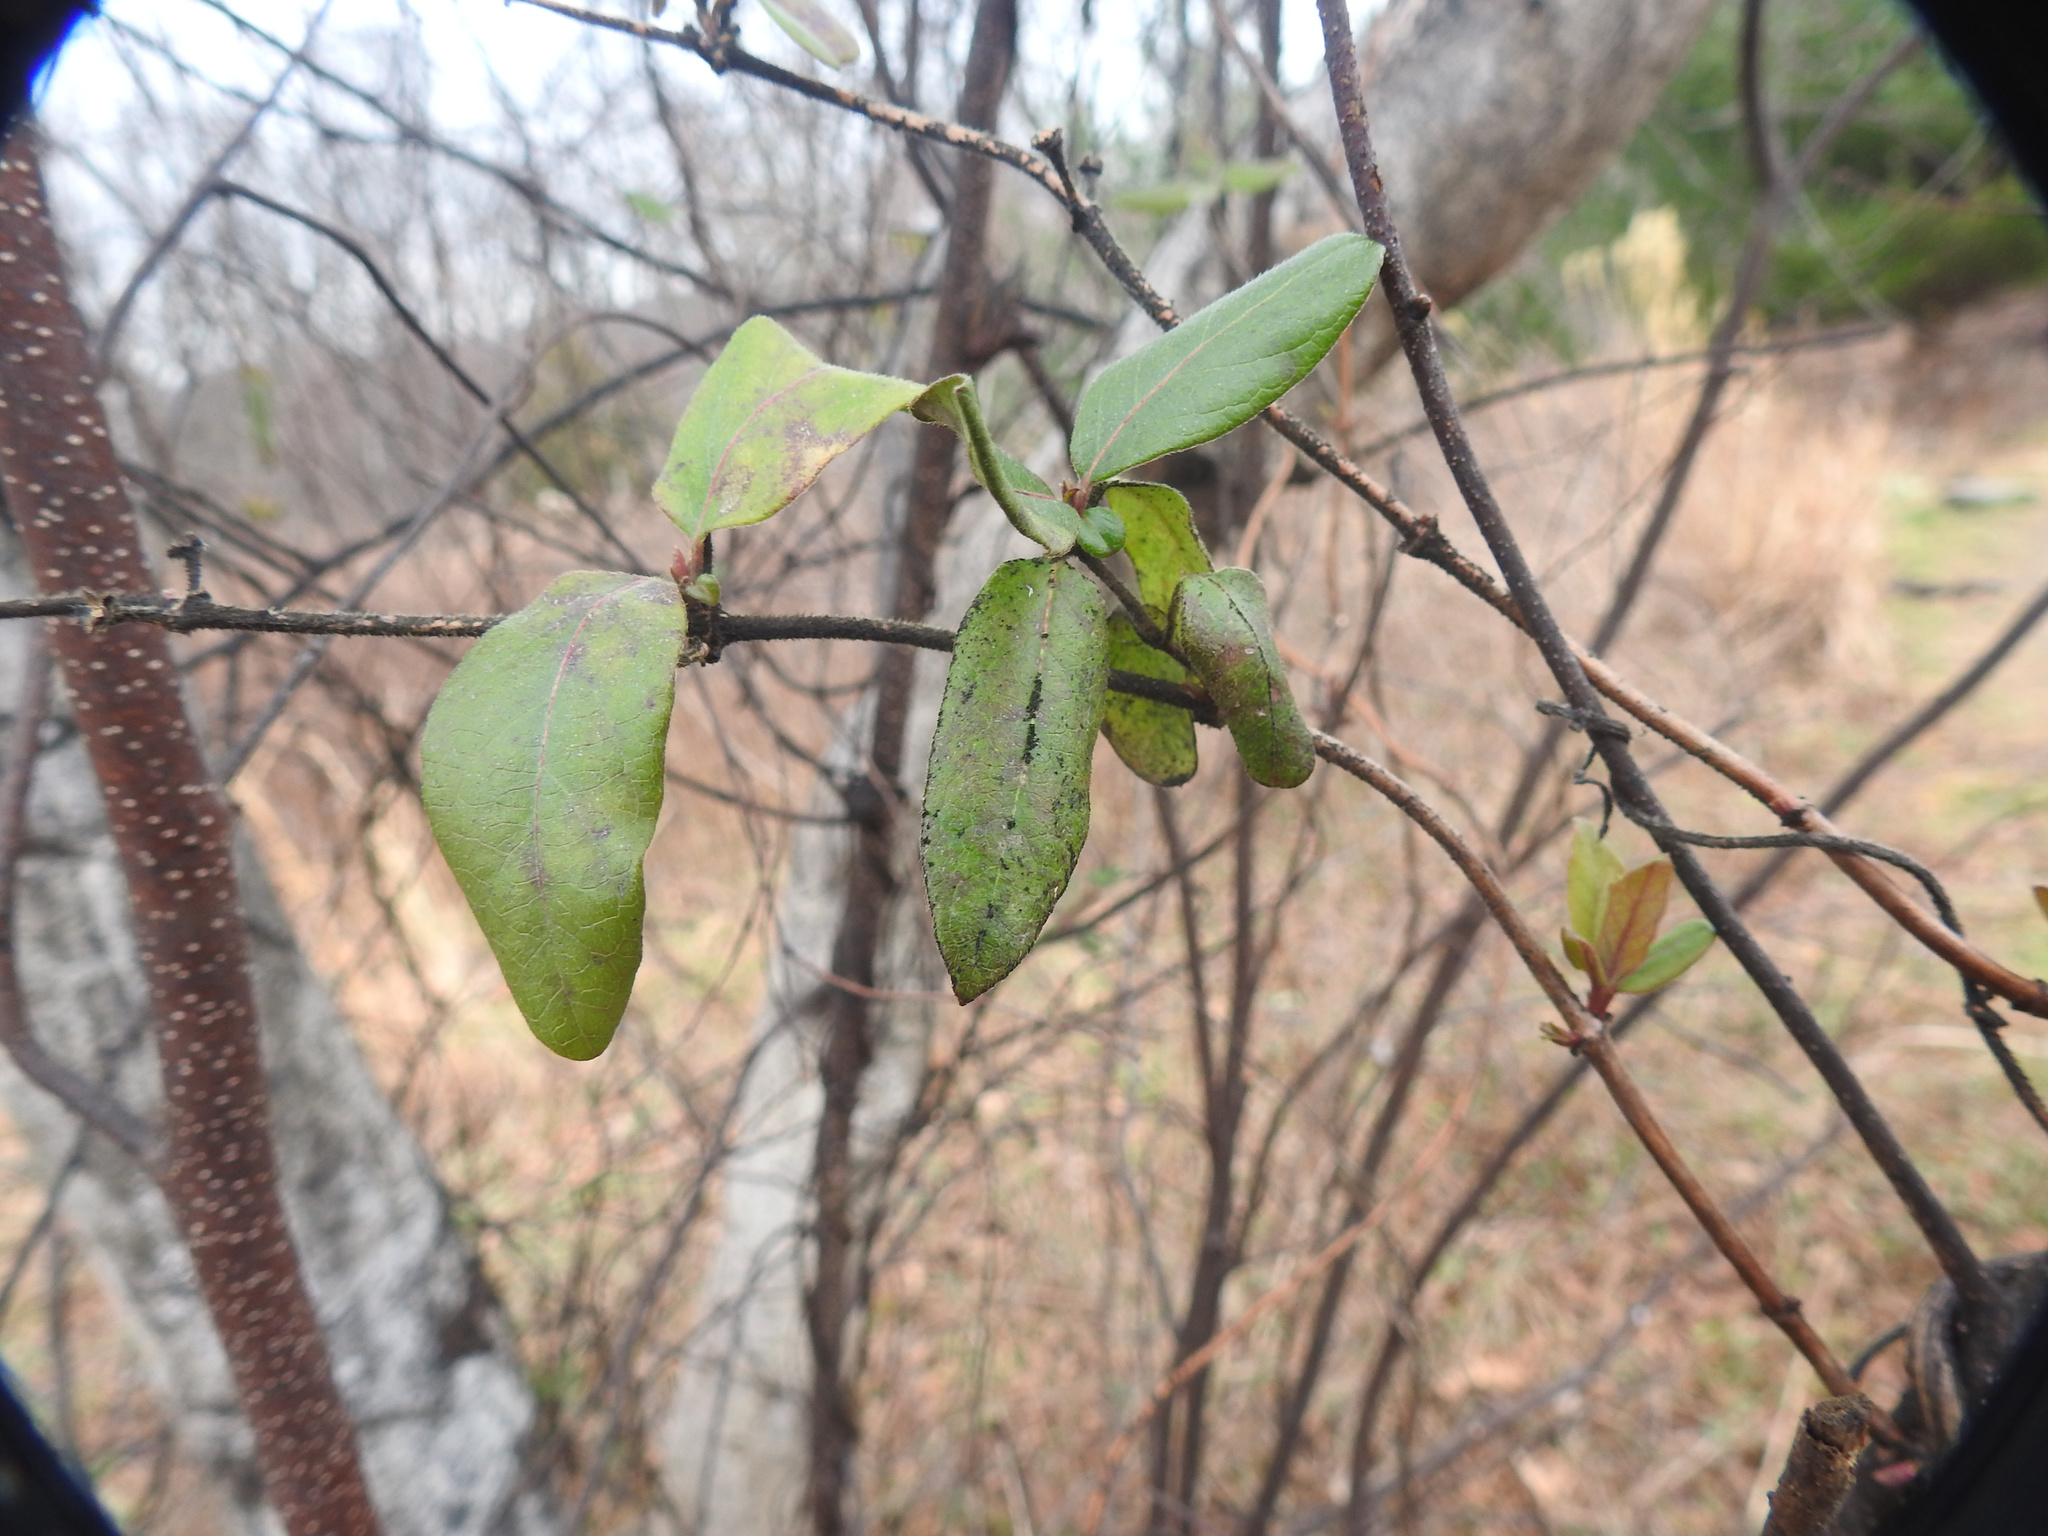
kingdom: Plantae
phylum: Tracheophyta
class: Magnoliopsida
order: Dipsacales
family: Caprifoliaceae
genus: Lonicera
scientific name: Lonicera japonica
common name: Japanese honeysuckle
